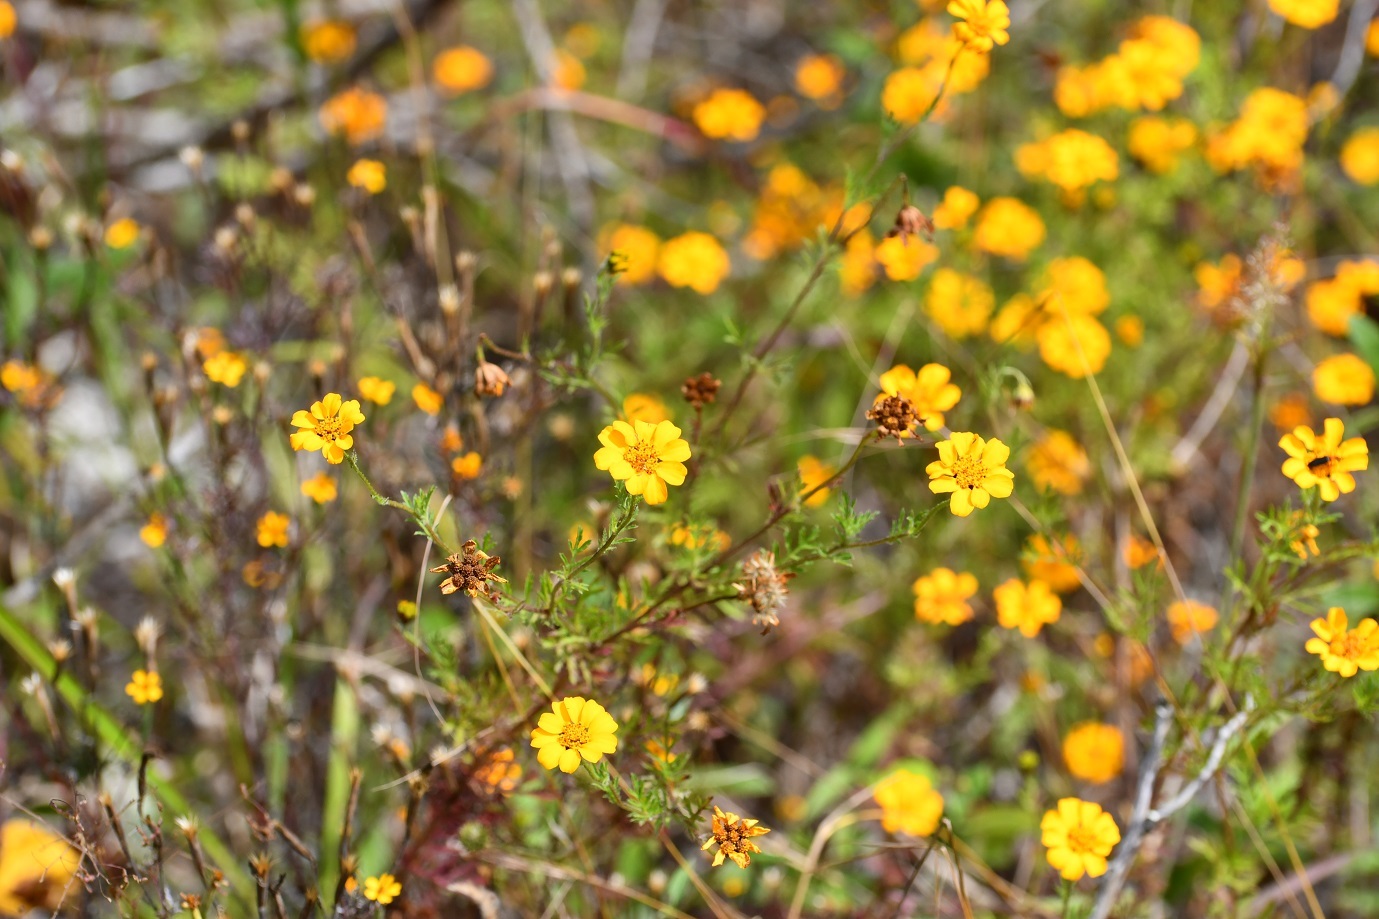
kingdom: Plantae
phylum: Tracheophyta
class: Magnoliopsida
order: Asterales
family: Asteraceae
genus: Dyssodia
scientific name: Dyssodia decipiens
